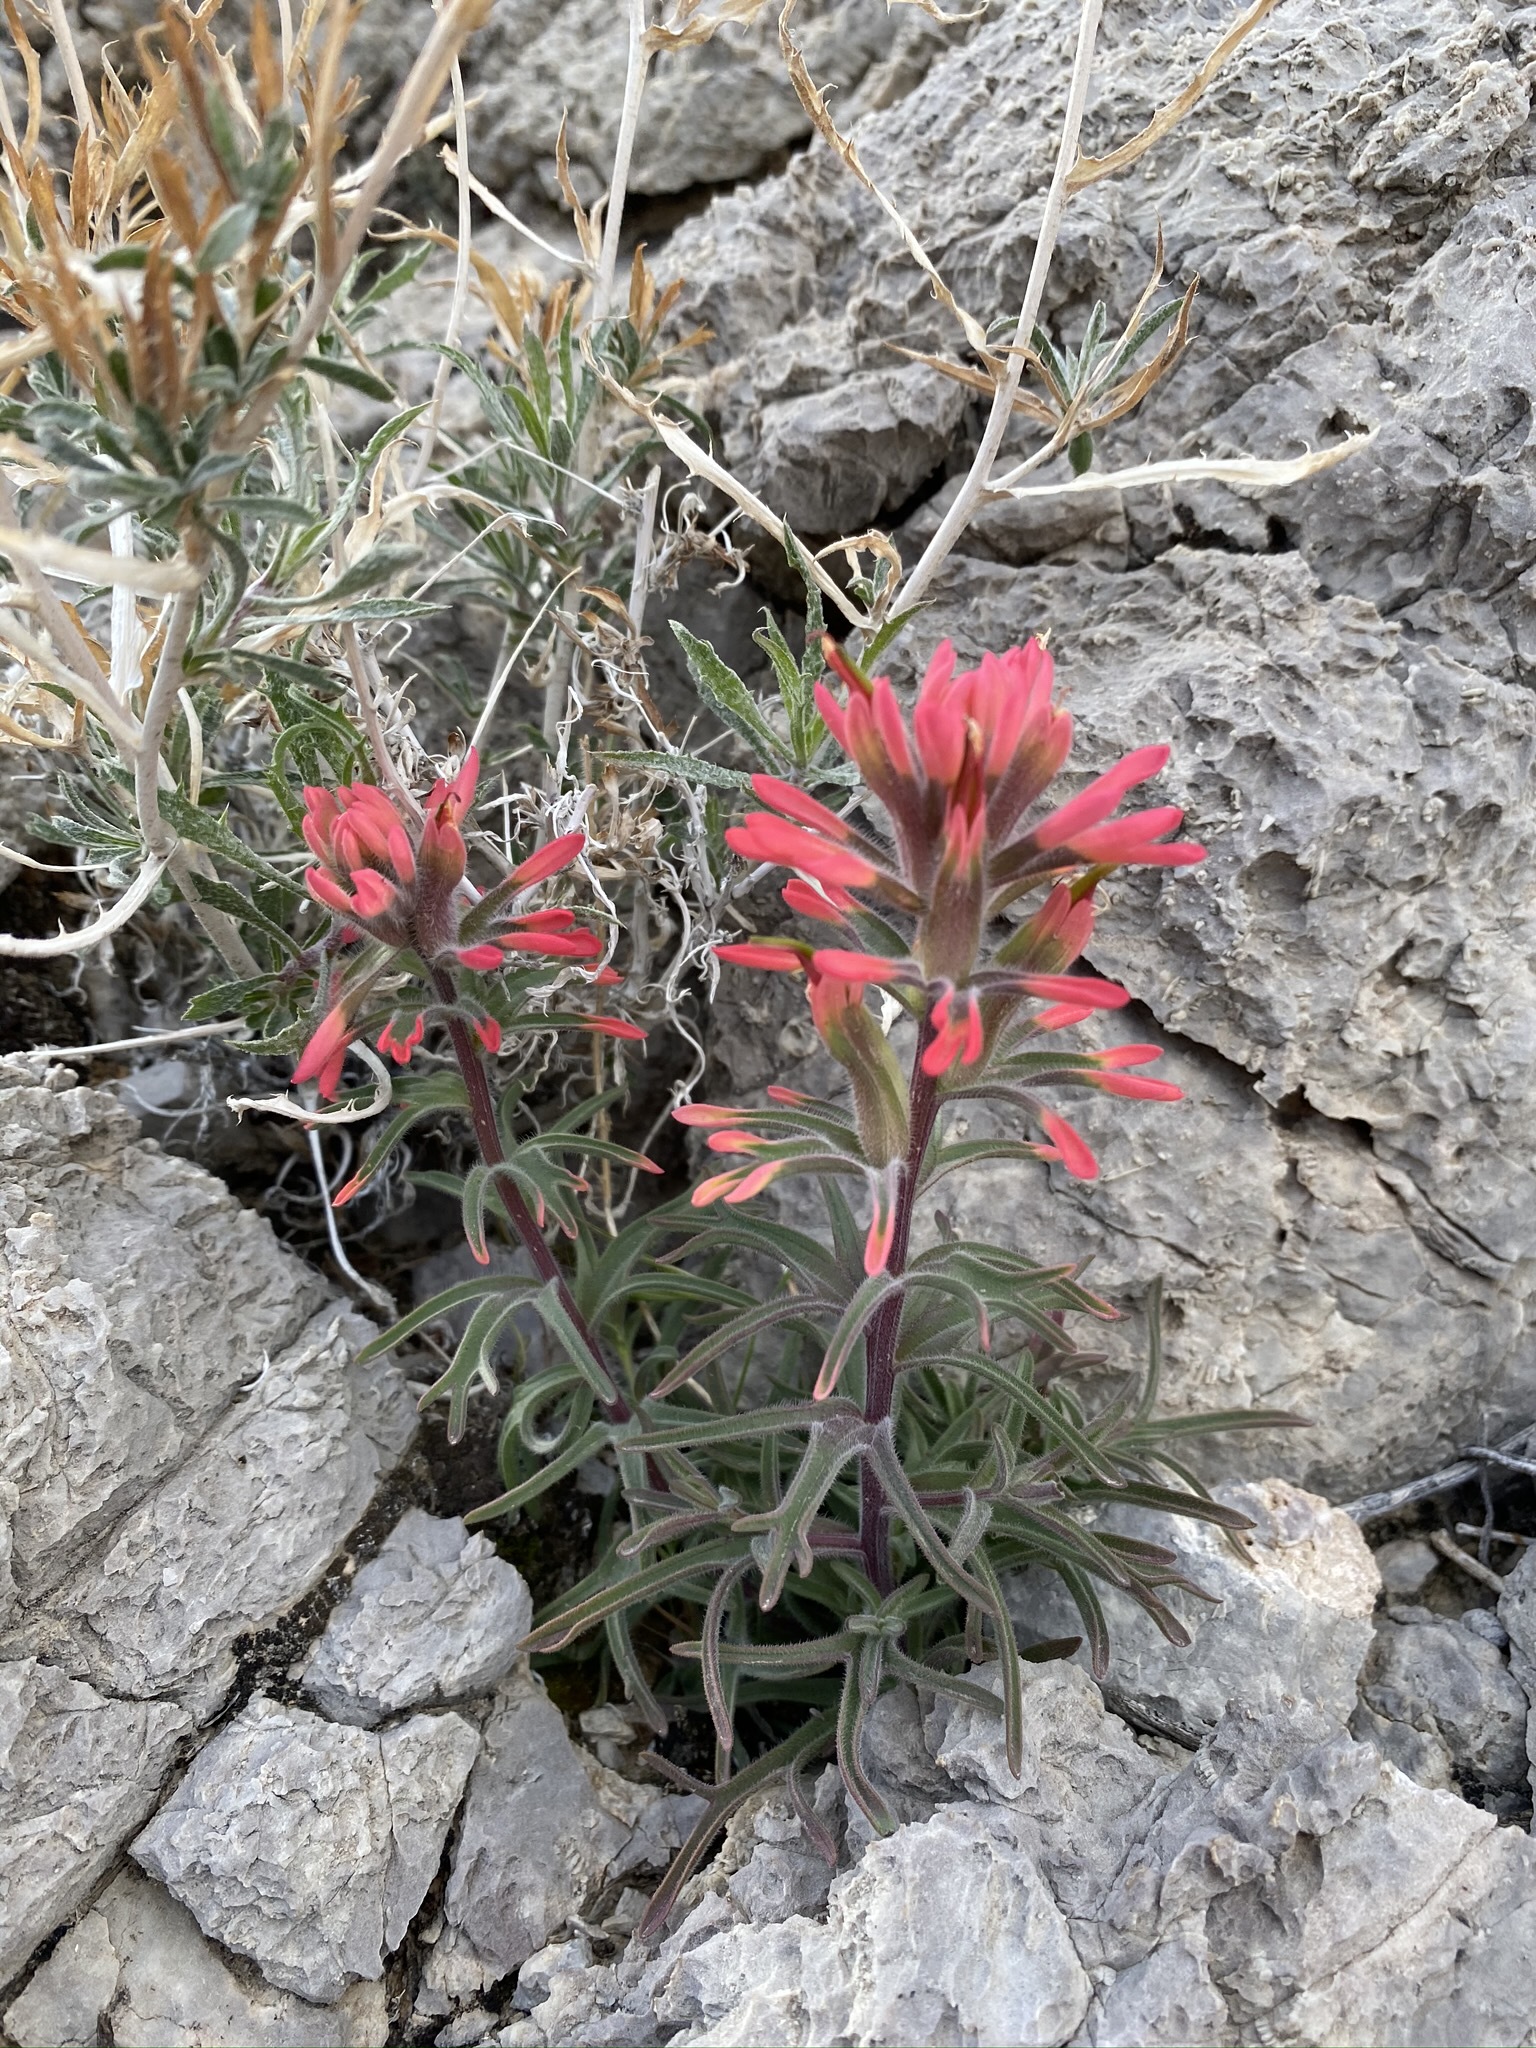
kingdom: Plantae
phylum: Tracheophyta
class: Magnoliopsida
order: Lamiales
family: Orobanchaceae
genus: Castilleja
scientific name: Castilleja chromosa
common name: Desert paintbrush
